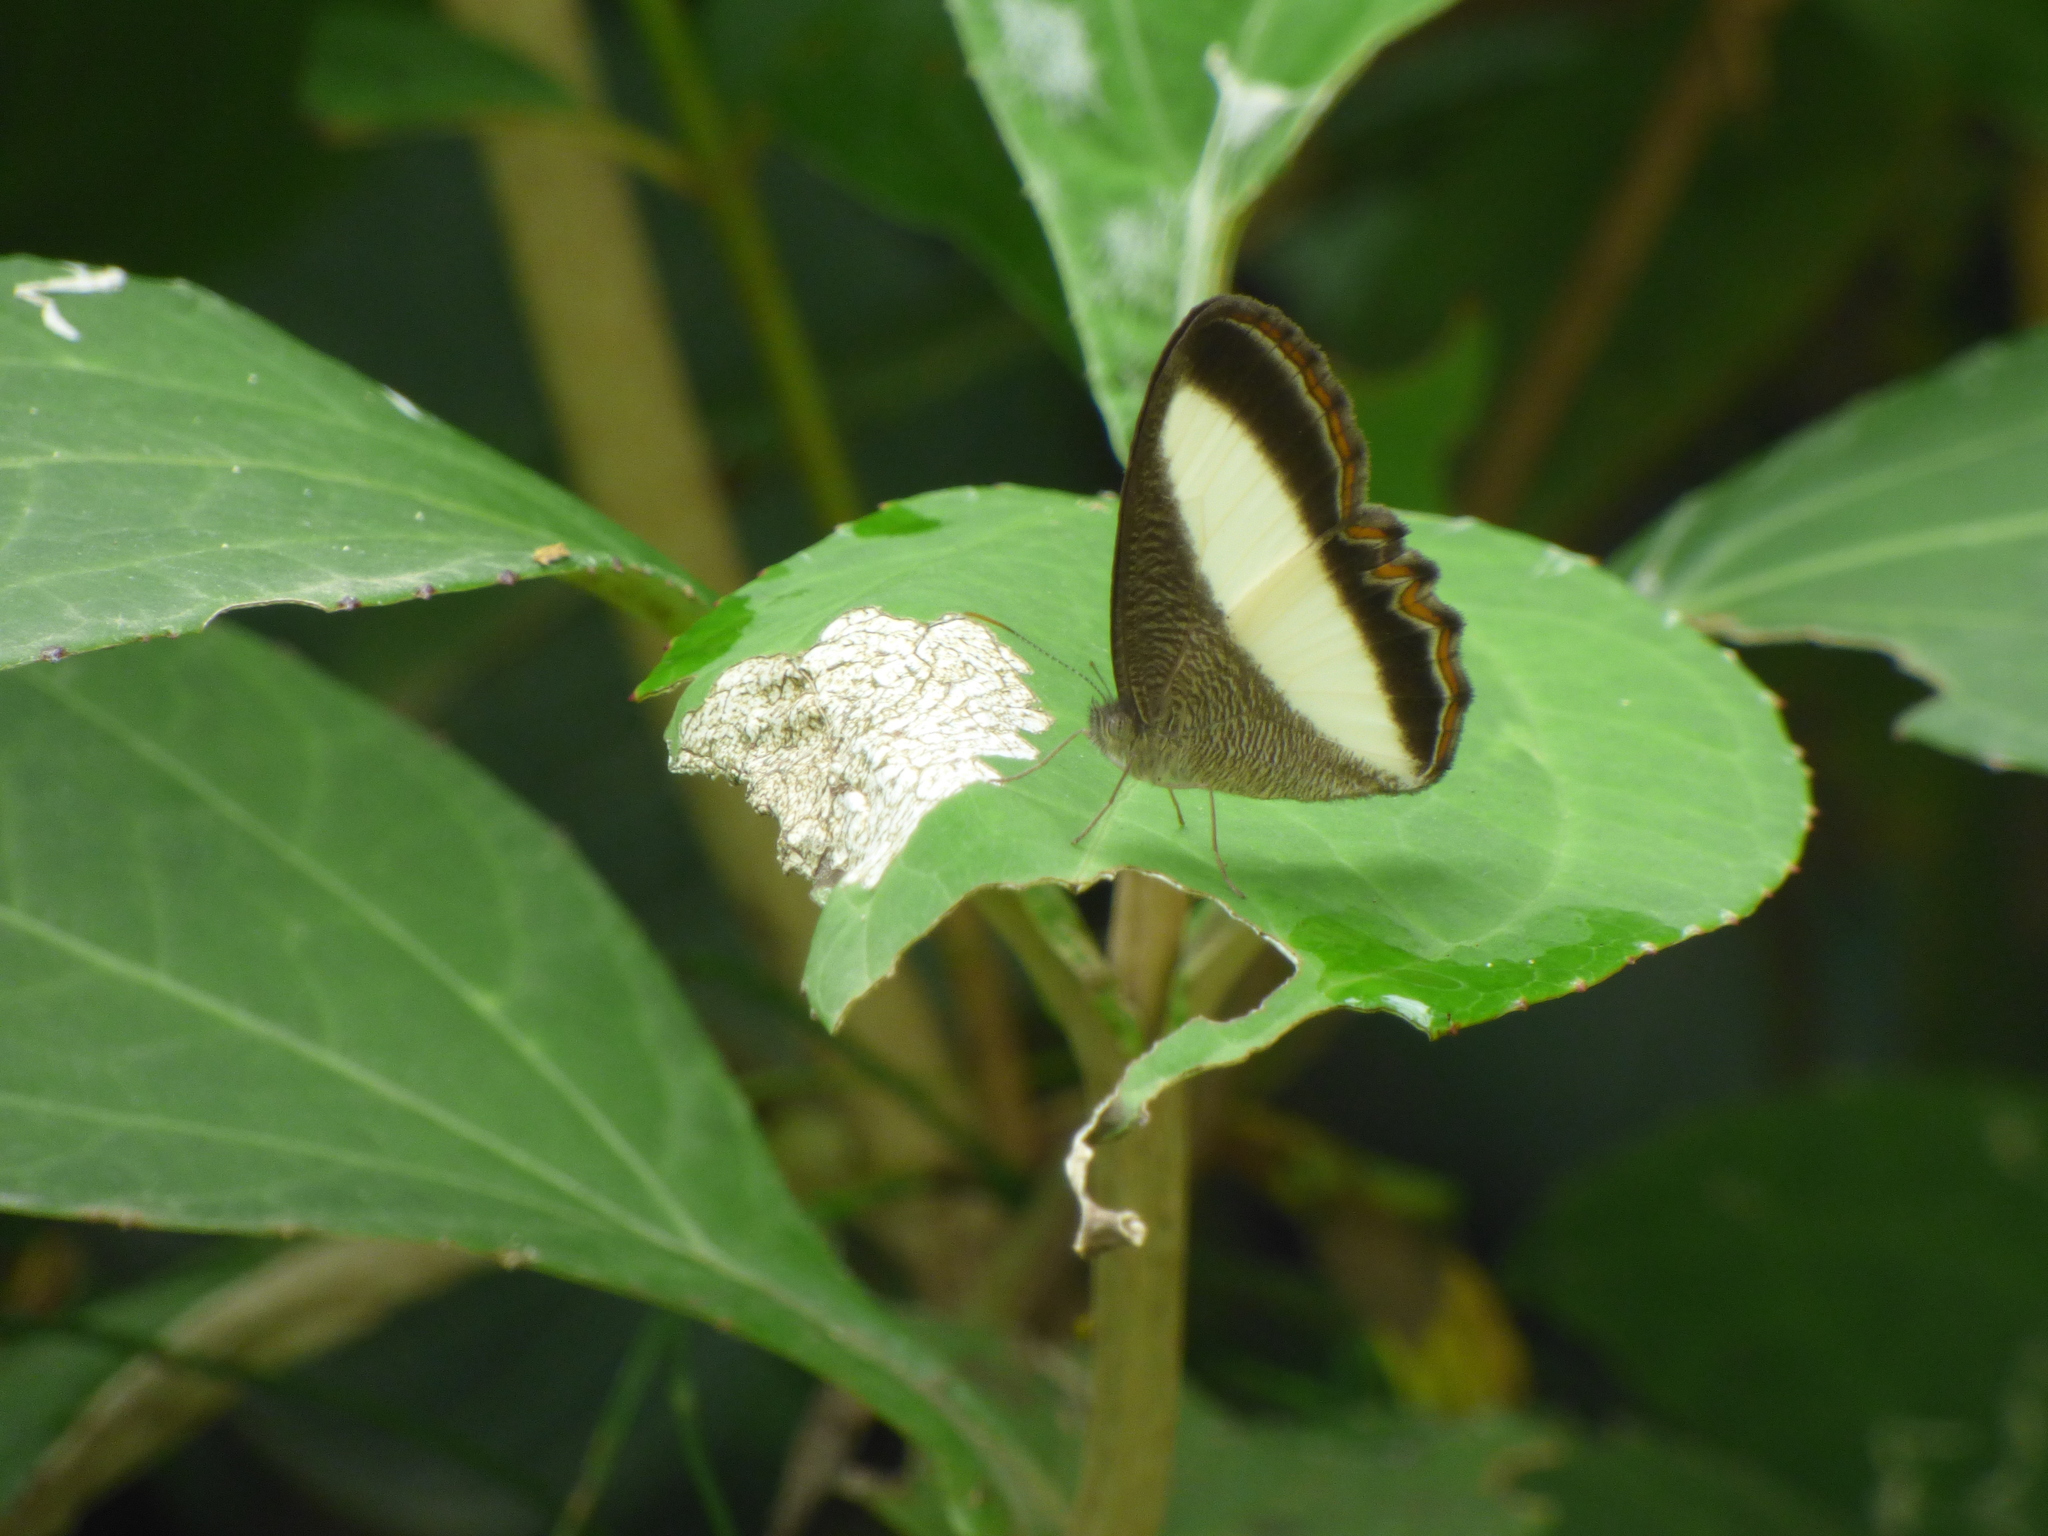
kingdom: Animalia
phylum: Arthropoda
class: Insecta
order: Lepidoptera
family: Nymphalidae
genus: Oressinoma
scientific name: Oressinoma typhla
